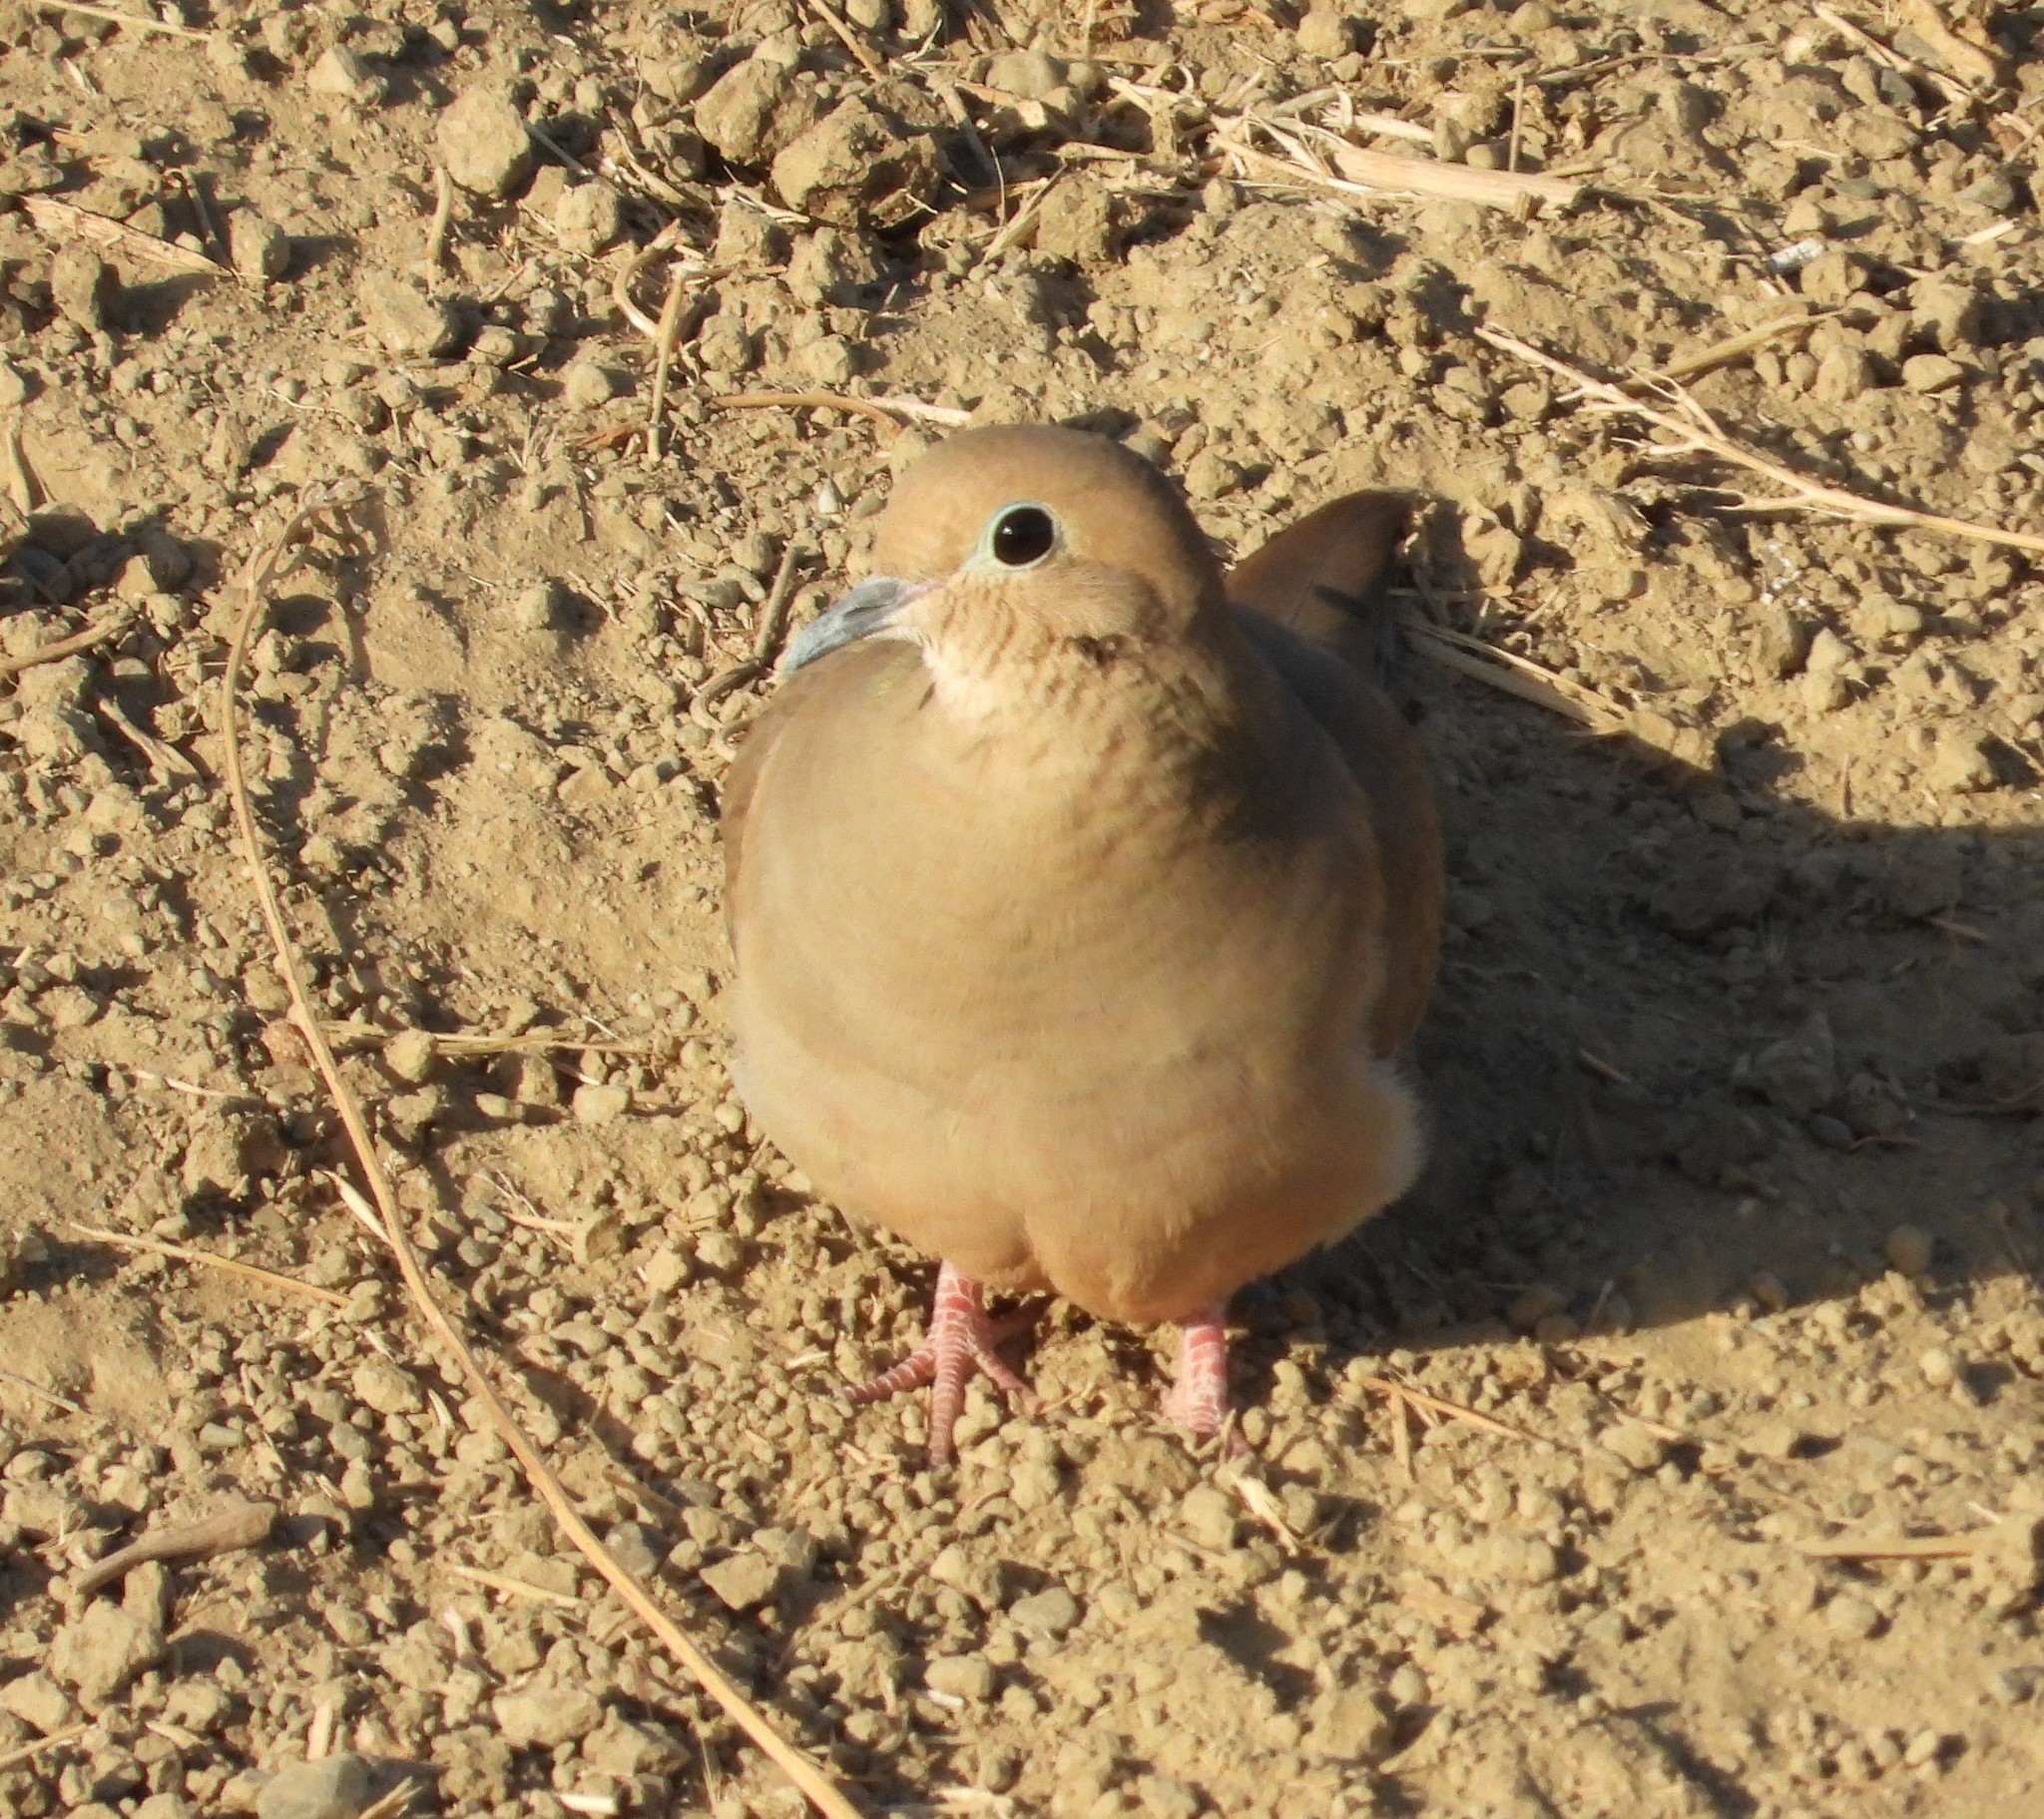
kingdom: Animalia
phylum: Chordata
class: Aves
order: Columbiformes
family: Columbidae
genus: Zenaida
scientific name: Zenaida macroura
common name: Mourning dove
